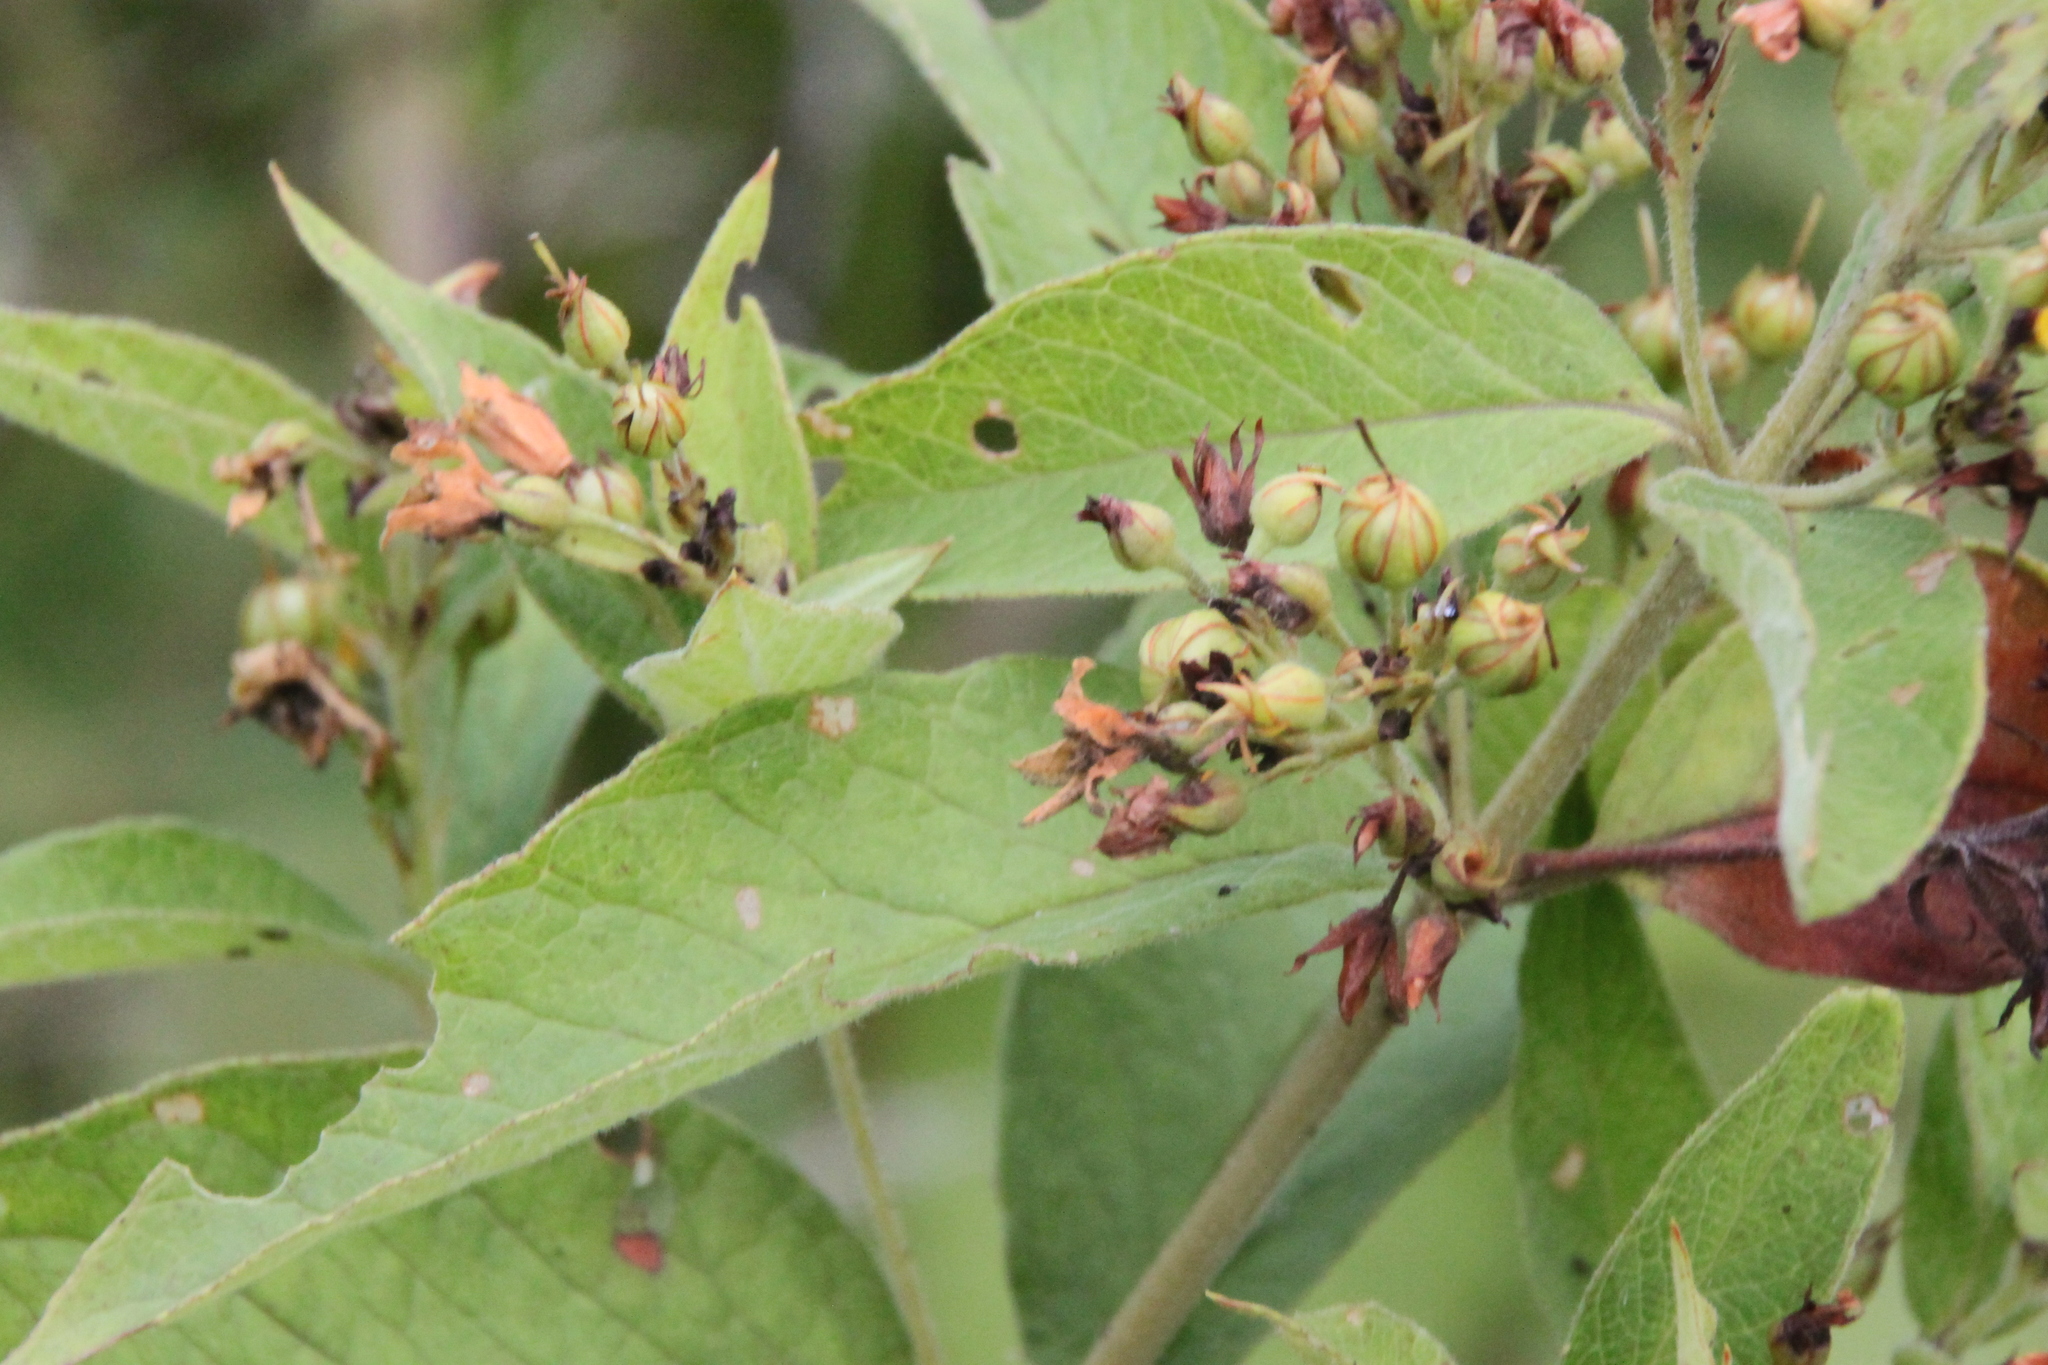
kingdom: Plantae
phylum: Tracheophyta
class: Magnoliopsida
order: Ericales
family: Primulaceae
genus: Lysimachia
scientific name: Lysimachia vulgaris
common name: Yellow loosestrife
